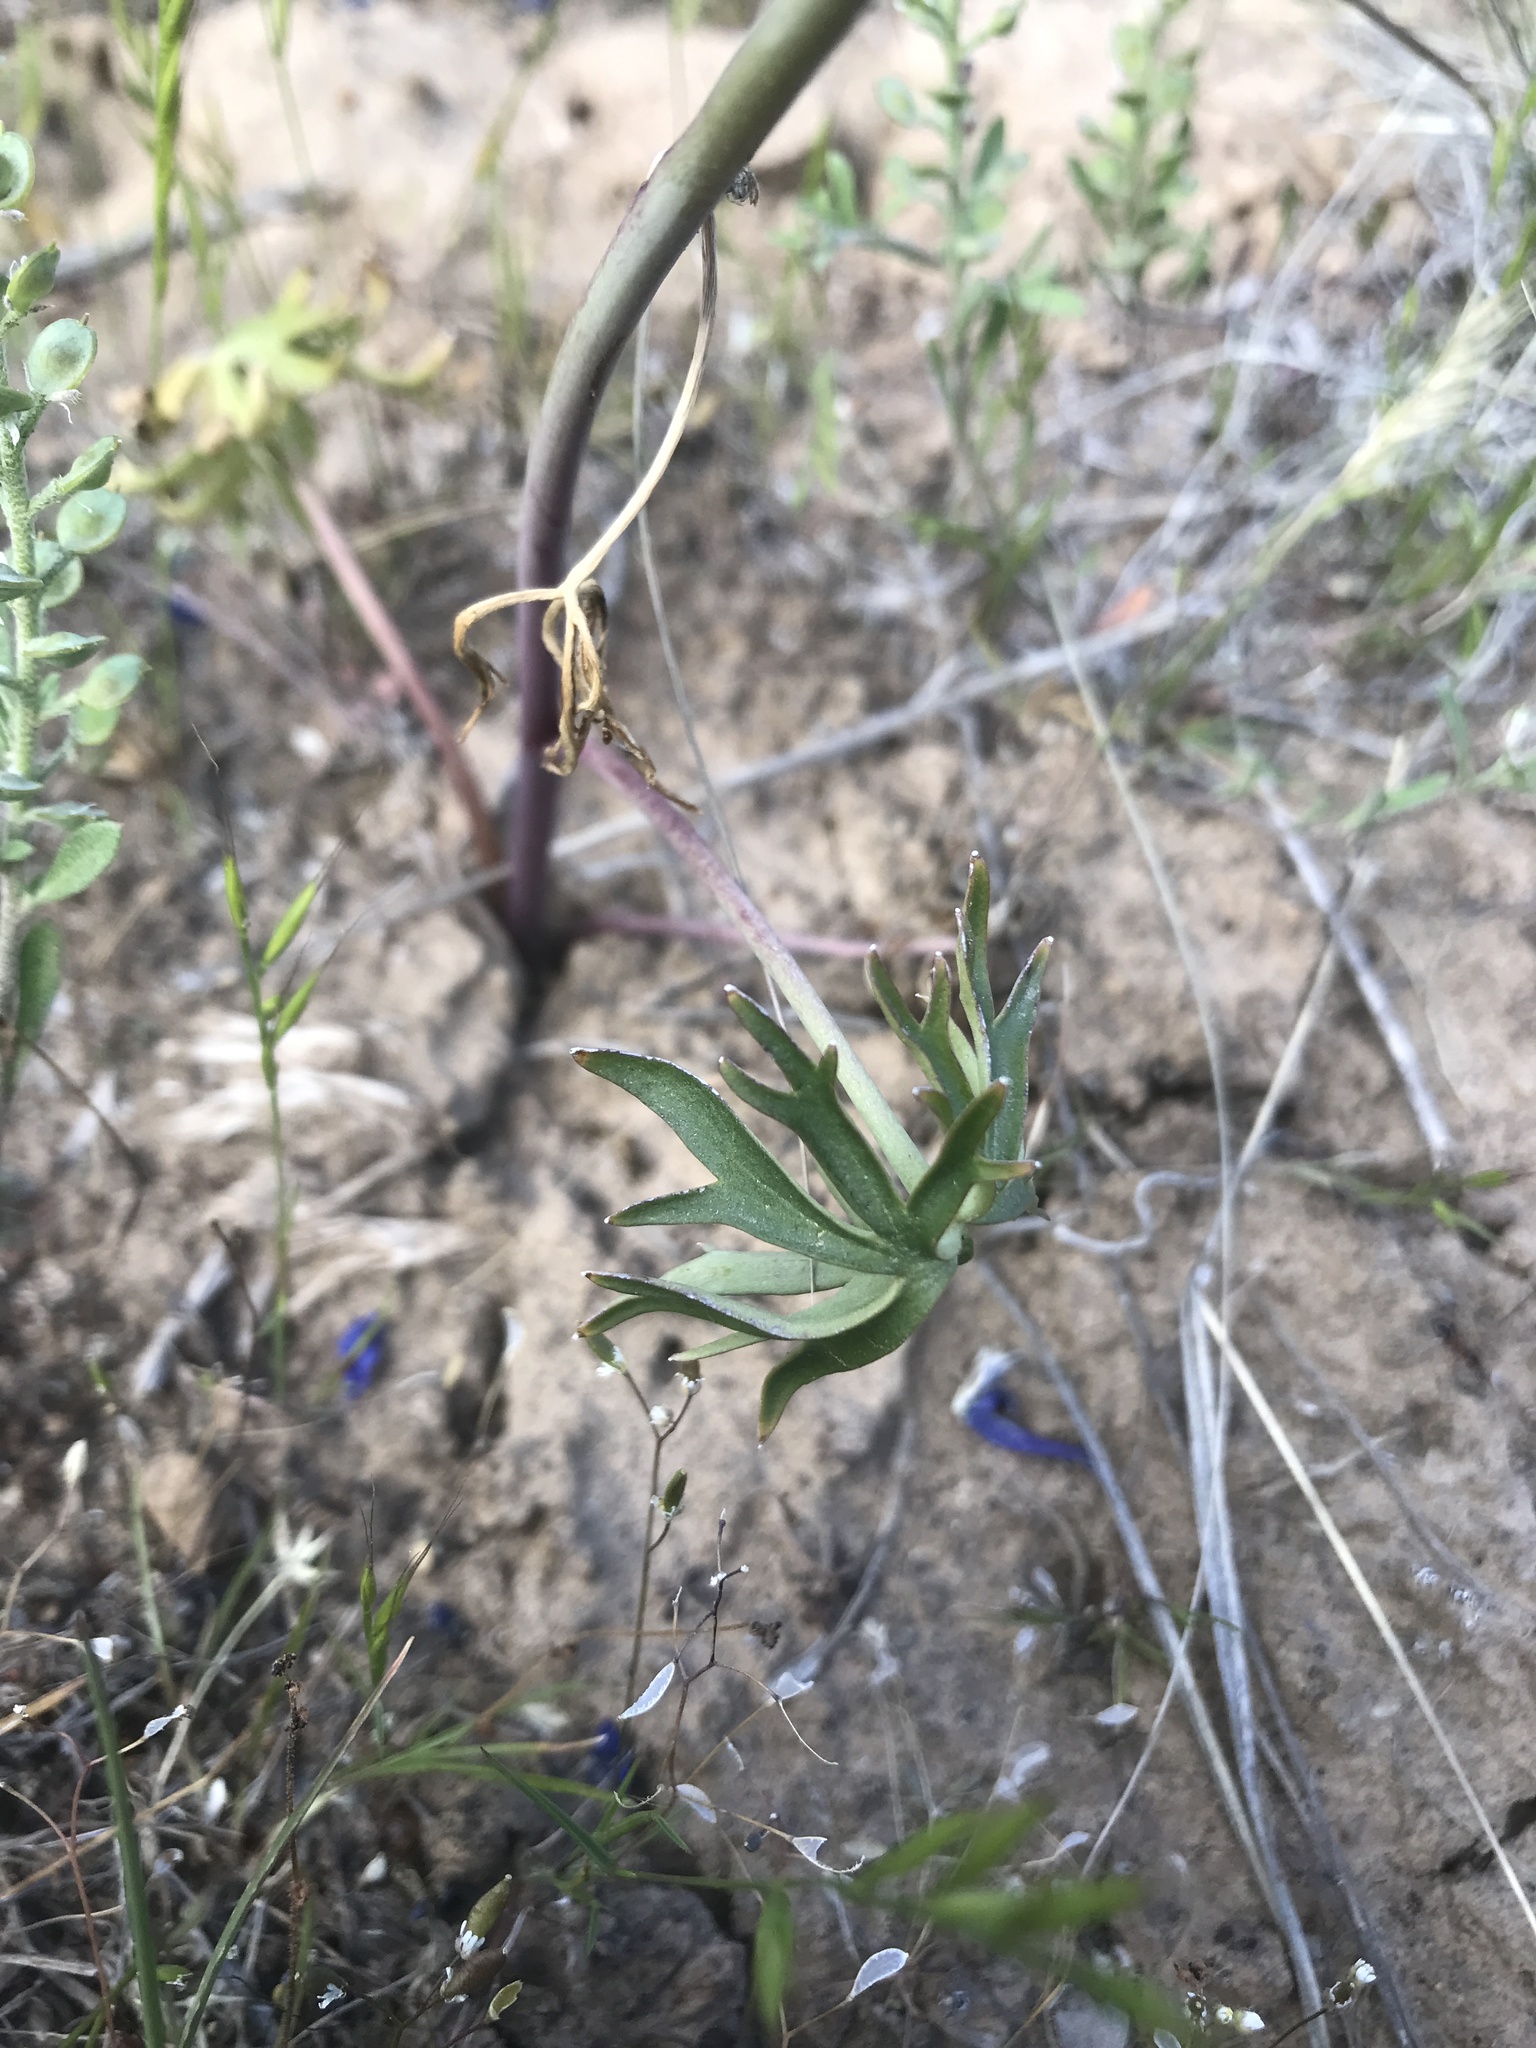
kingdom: Plantae
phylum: Tracheophyta
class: Magnoliopsida
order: Ranunculales
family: Ranunculaceae
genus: Delphinium
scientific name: Delphinium nuttallianum
